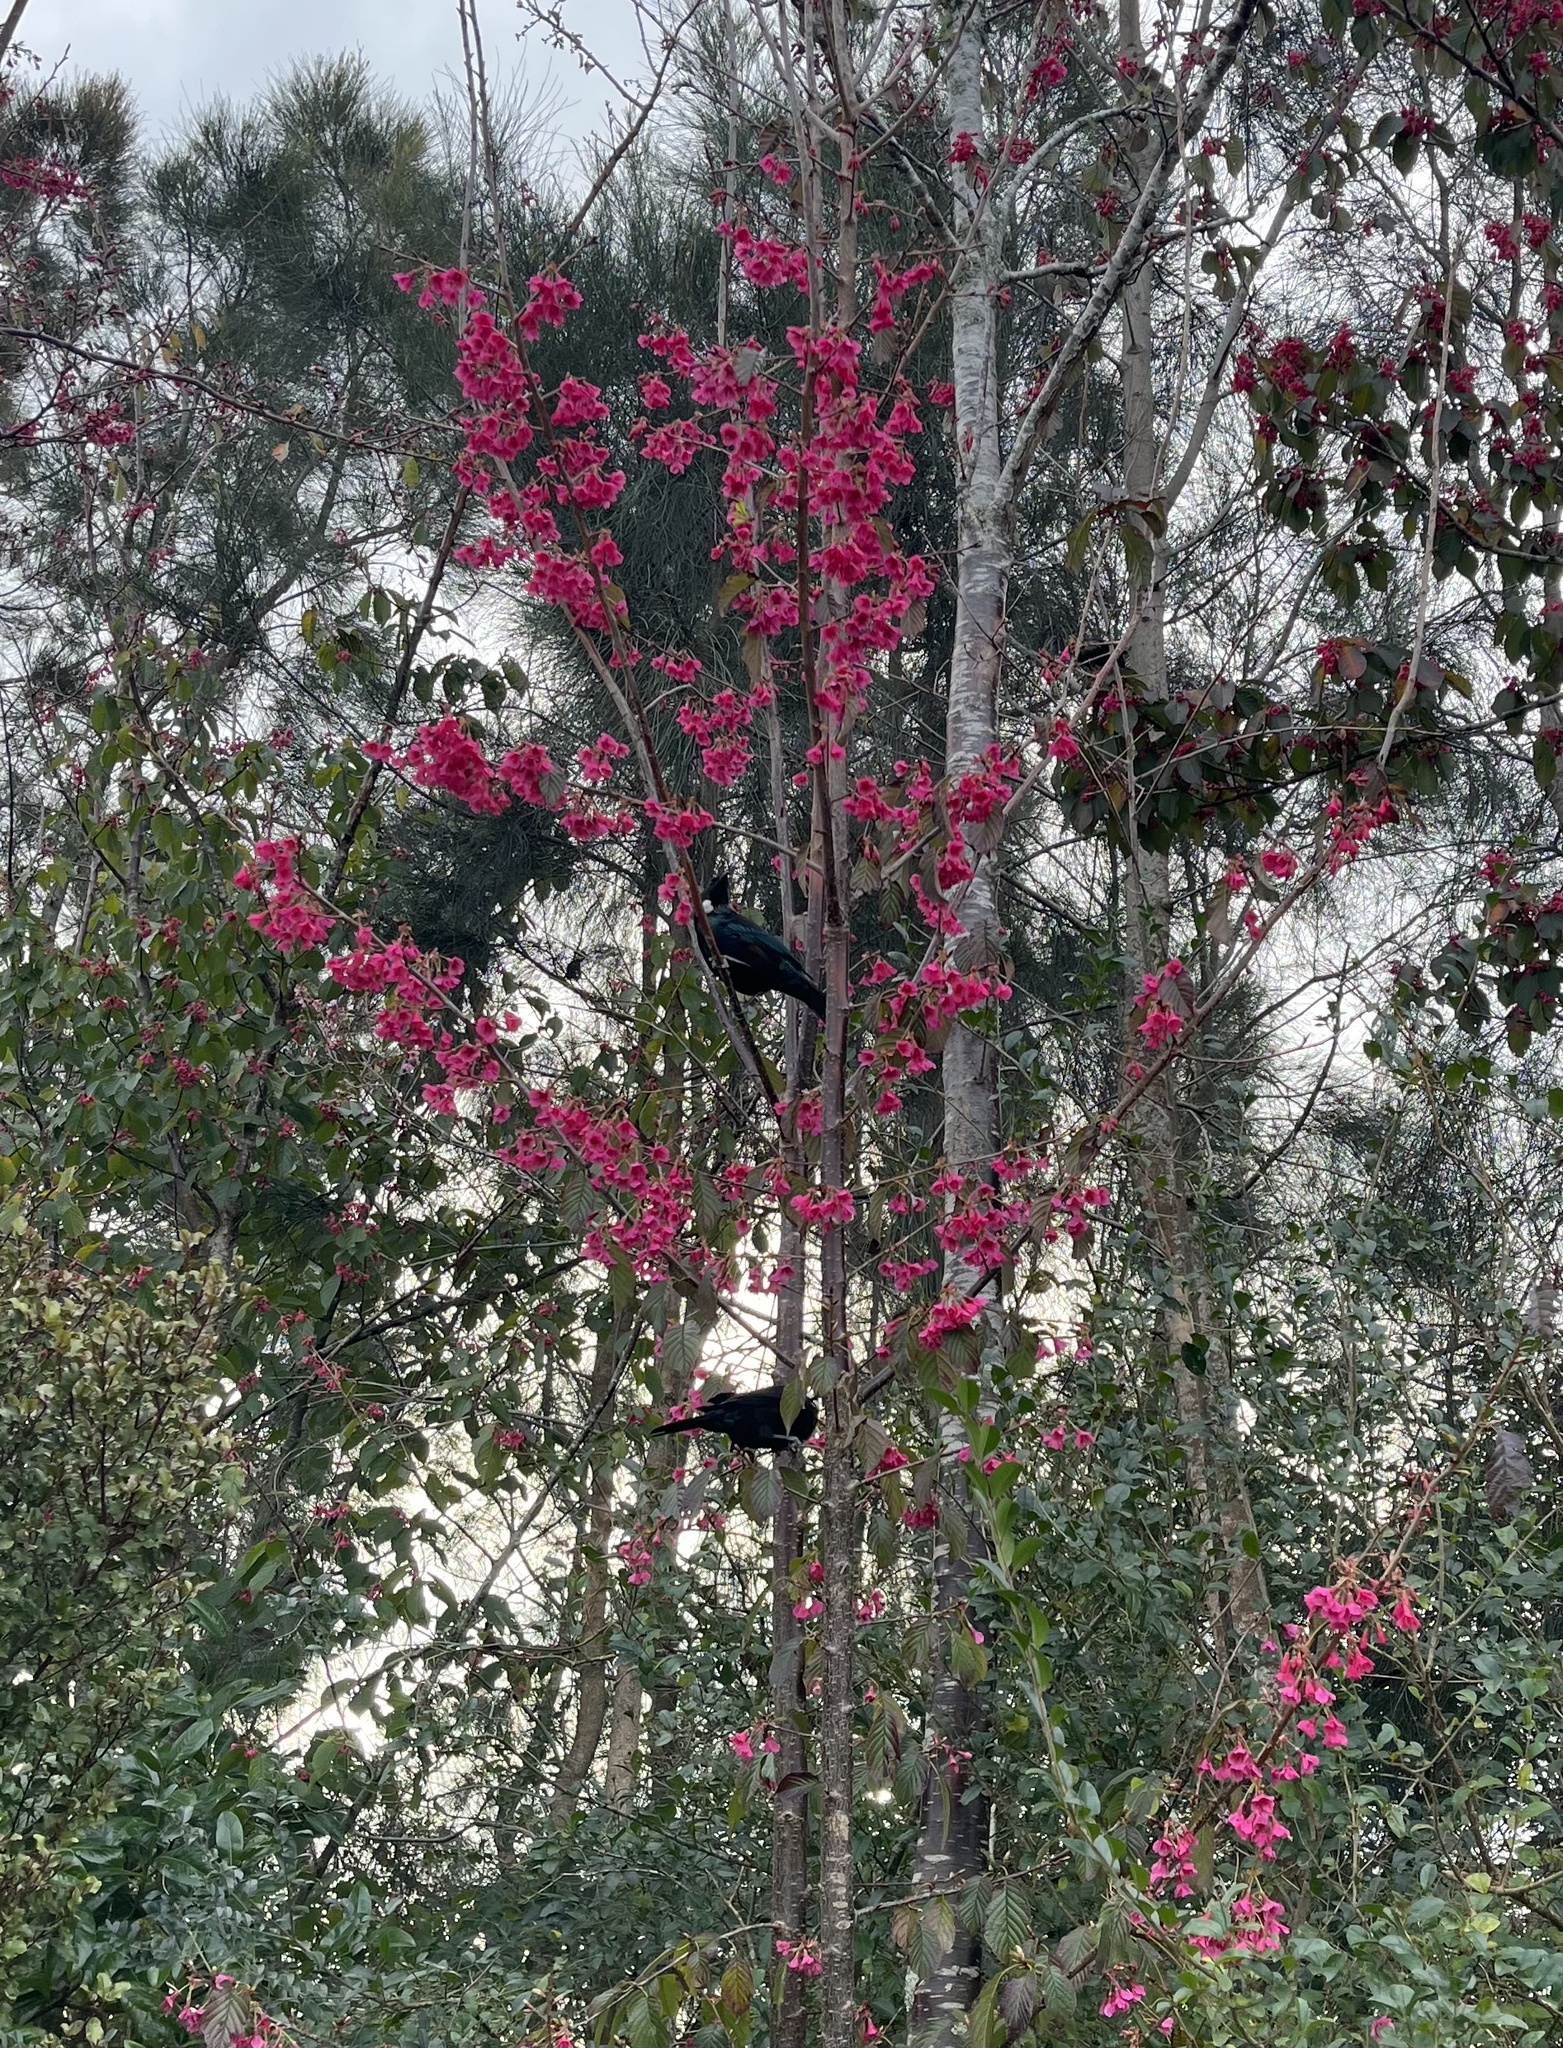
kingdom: Animalia
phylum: Chordata
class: Aves
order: Passeriformes
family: Meliphagidae
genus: Prosthemadera
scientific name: Prosthemadera novaeseelandiae
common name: Tui
